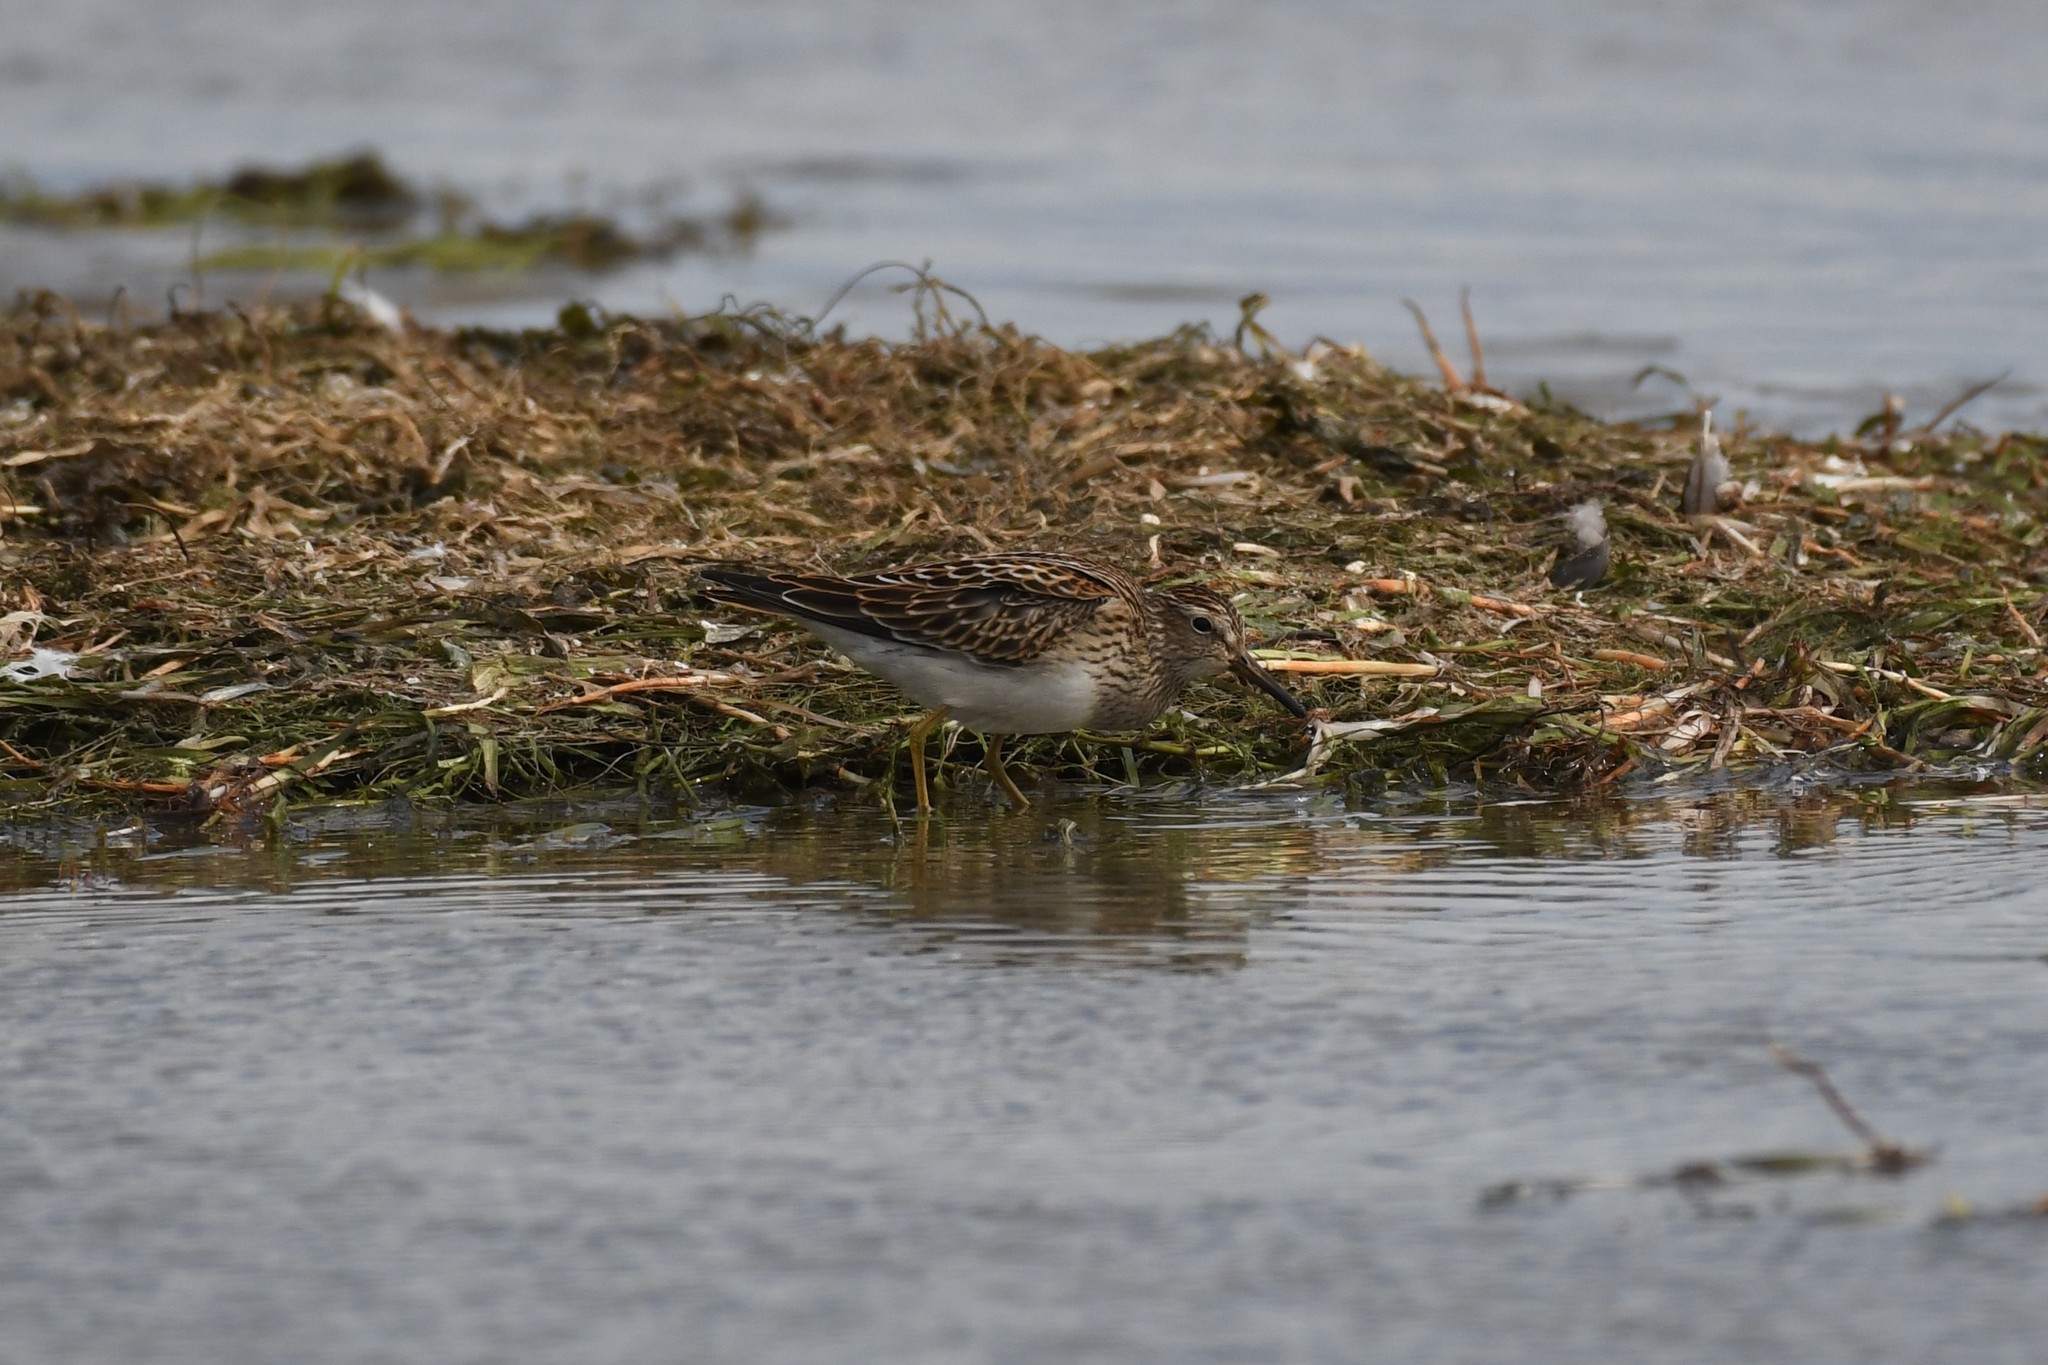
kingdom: Animalia
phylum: Chordata
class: Aves
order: Charadriiformes
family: Scolopacidae
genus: Calidris
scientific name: Calidris melanotos
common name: Pectoral sandpiper
